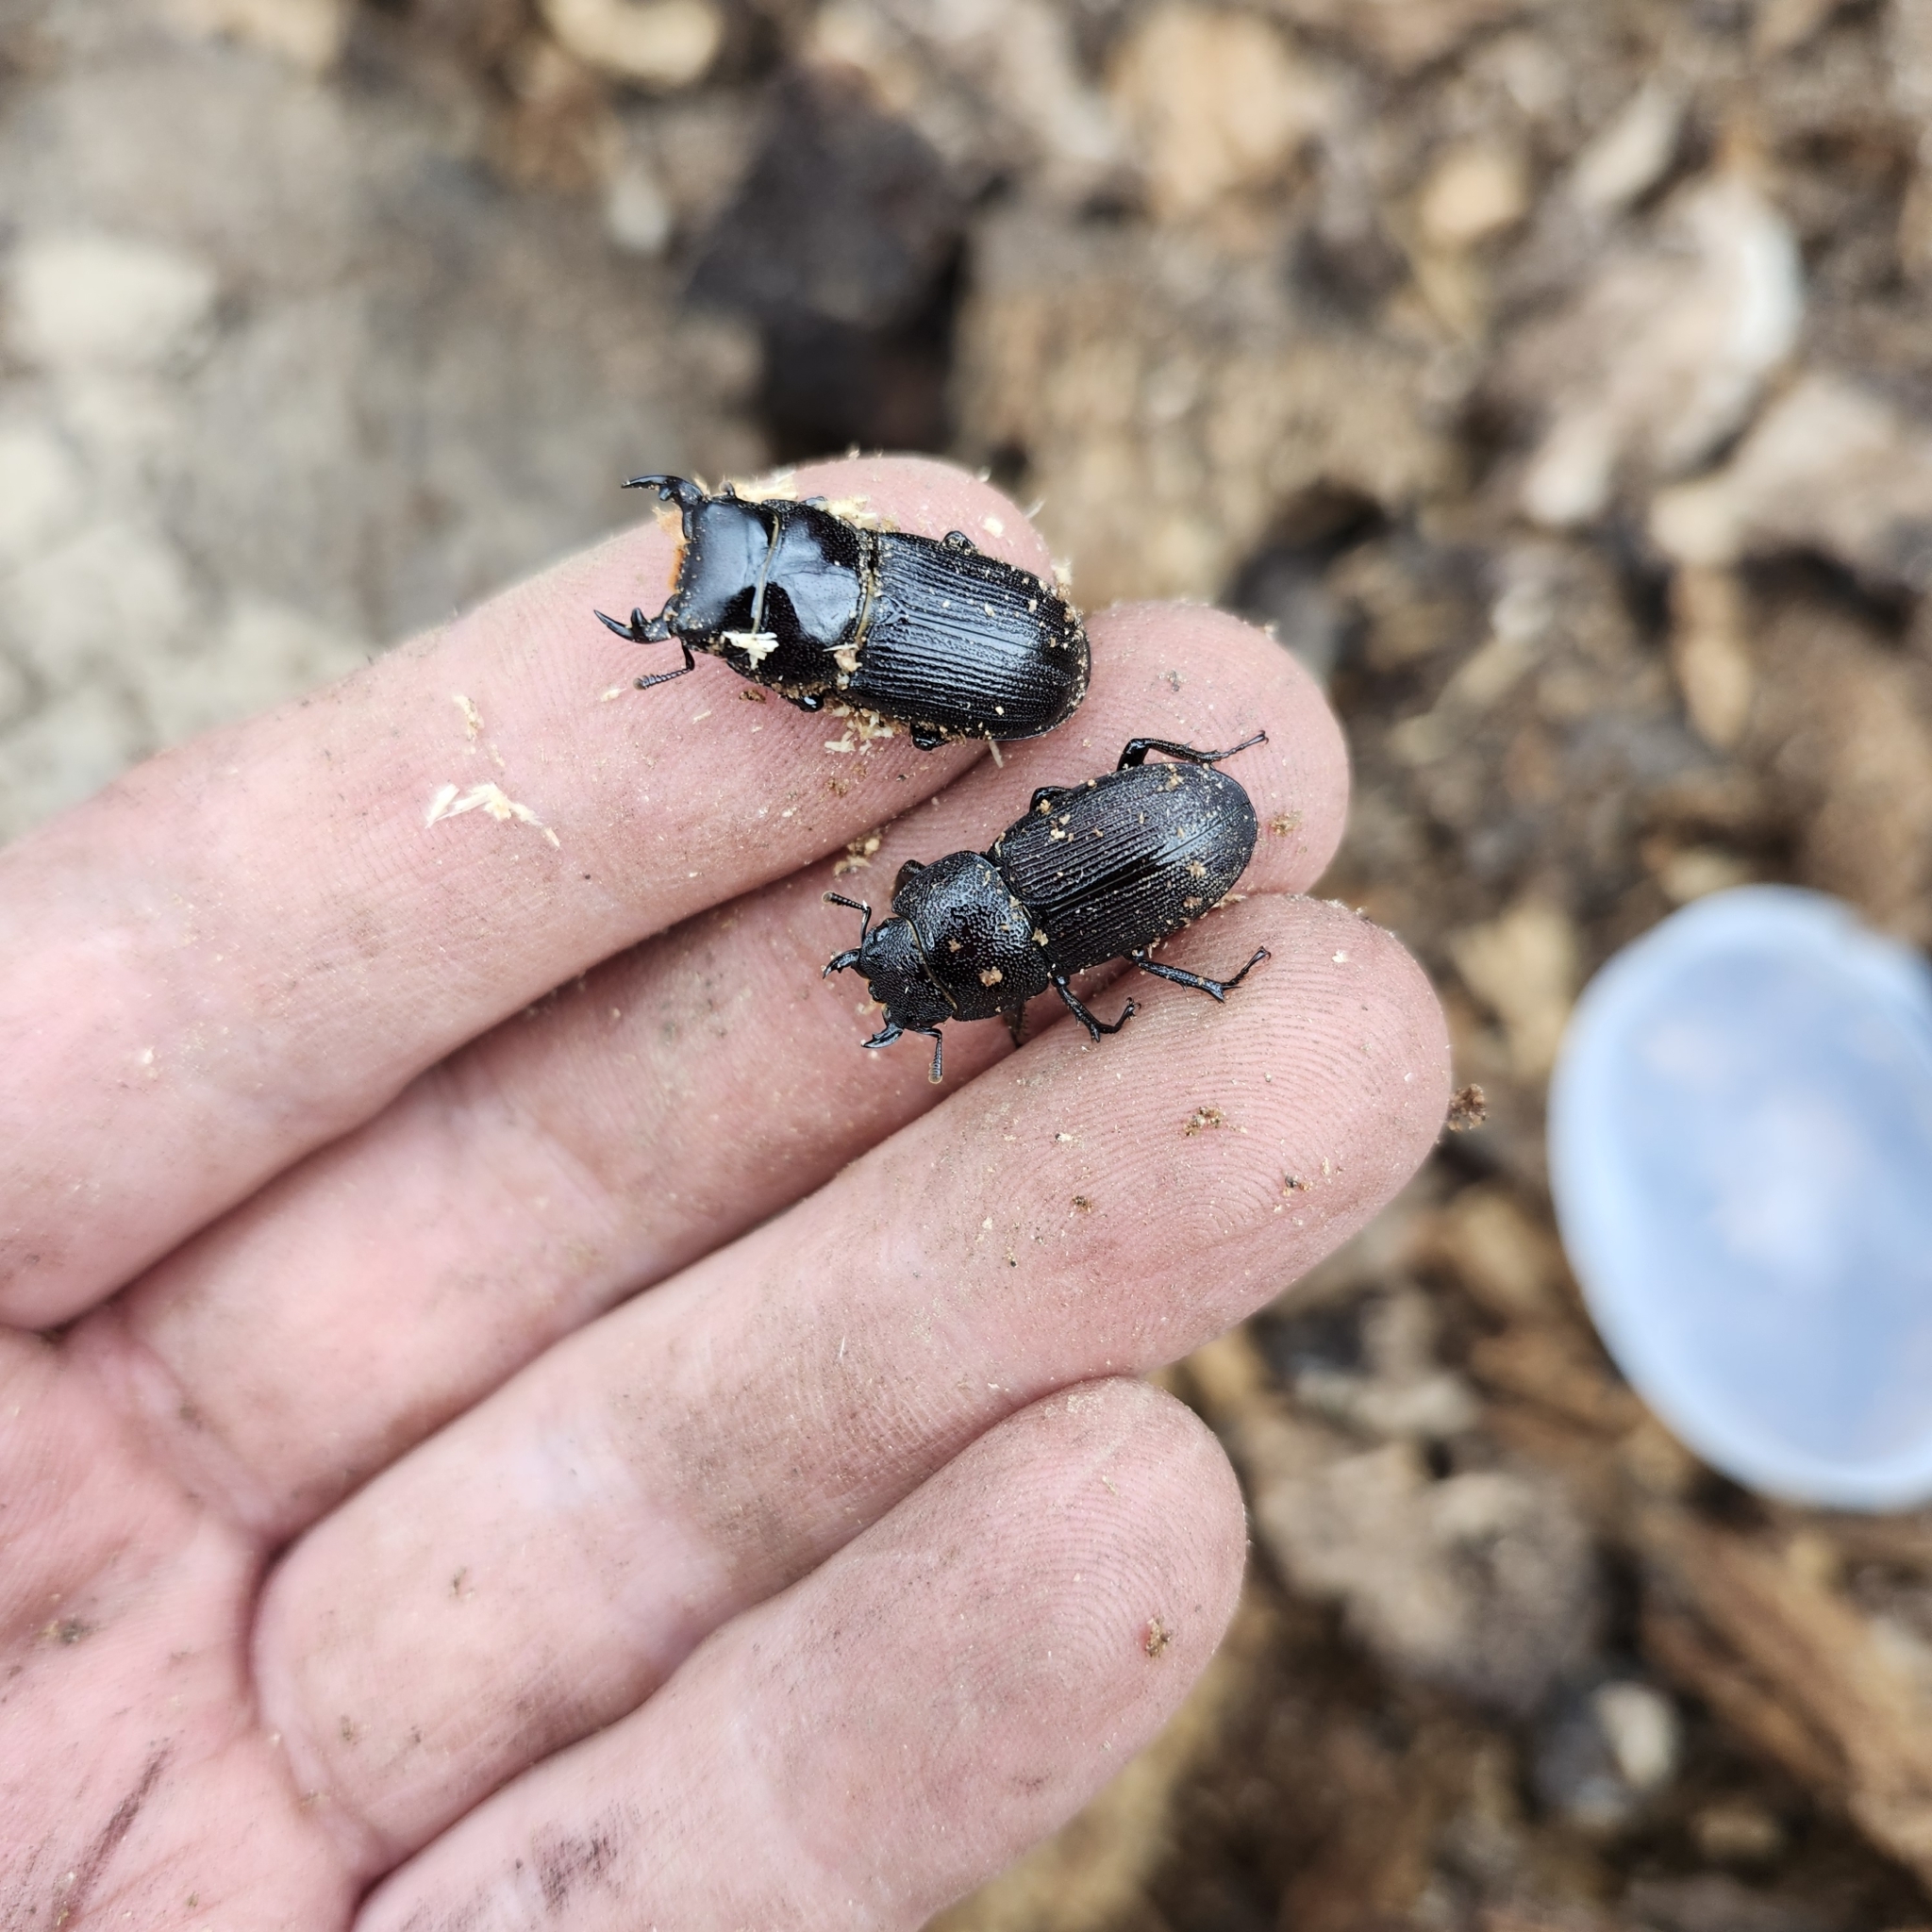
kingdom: Animalia
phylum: Arthropoda
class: Insecta
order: Coleoptera
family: Lucanidae
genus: Dorcus
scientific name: Dorcus parallelus
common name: Antelope beetle
